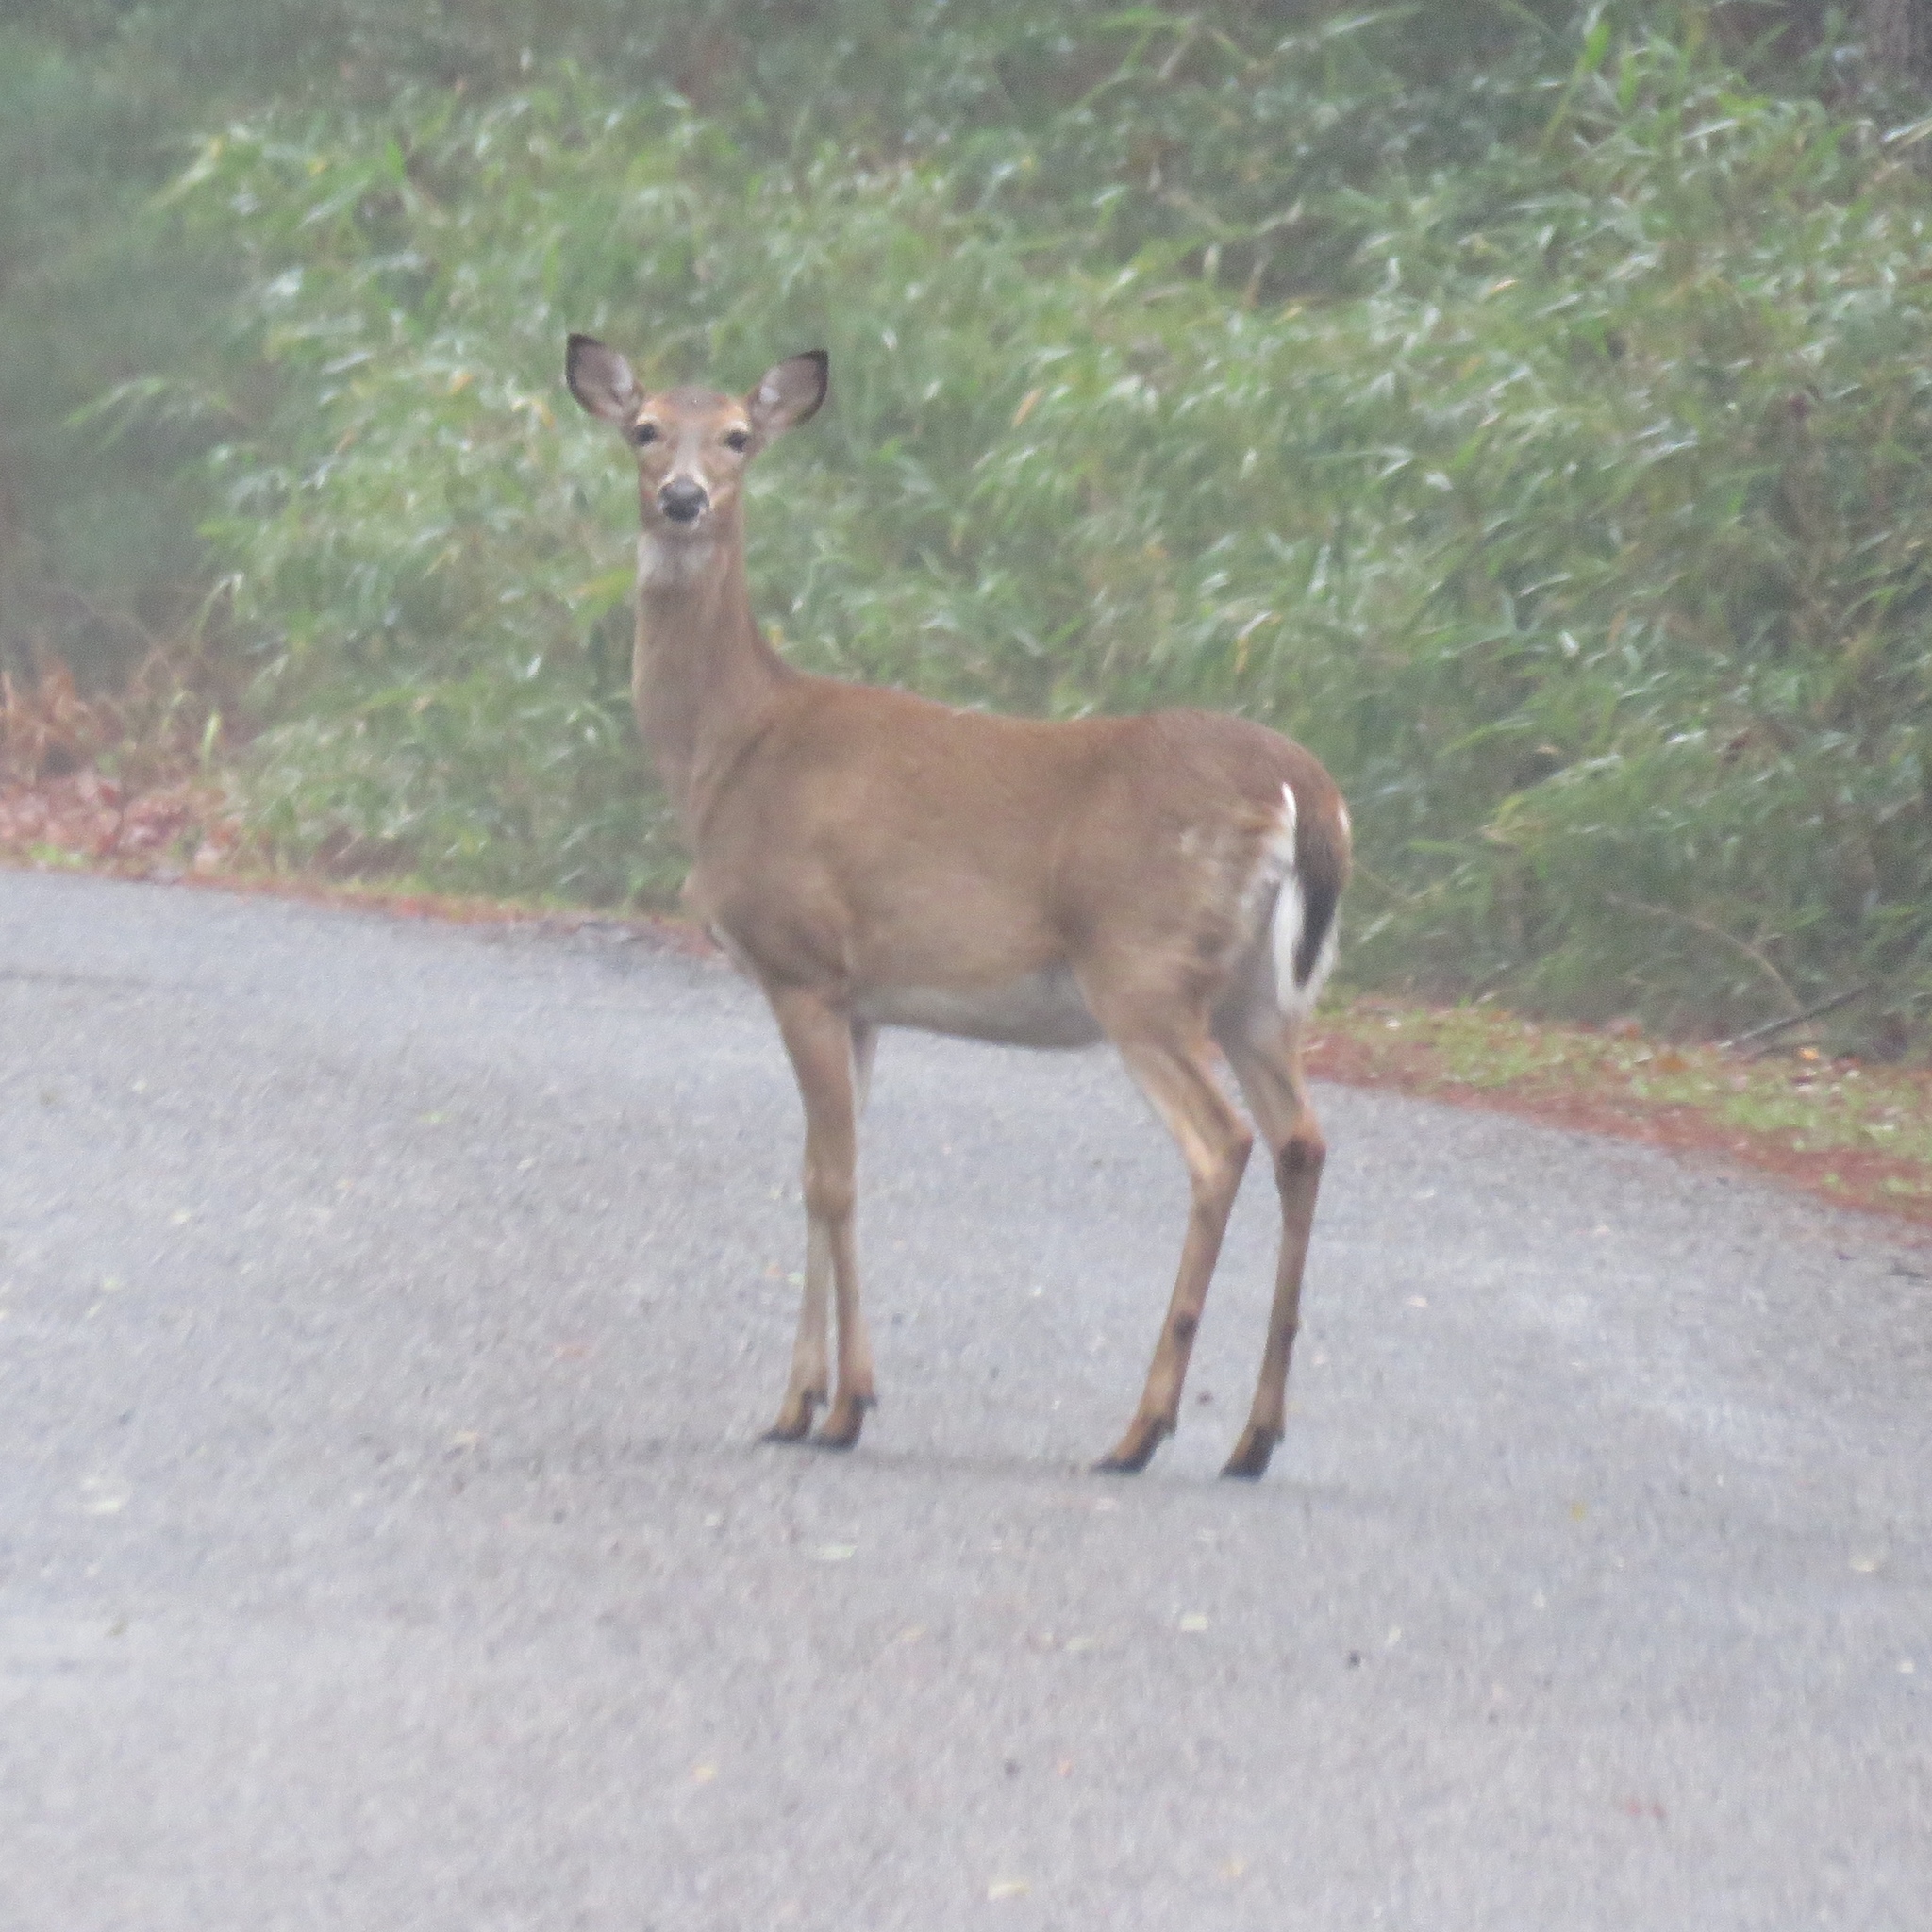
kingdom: Animalia
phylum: Chordata
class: Mammalia
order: Artiodactyla
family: Cervidae
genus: Odocoileus
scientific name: Odocoileus virginianus
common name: White-tailed deer
